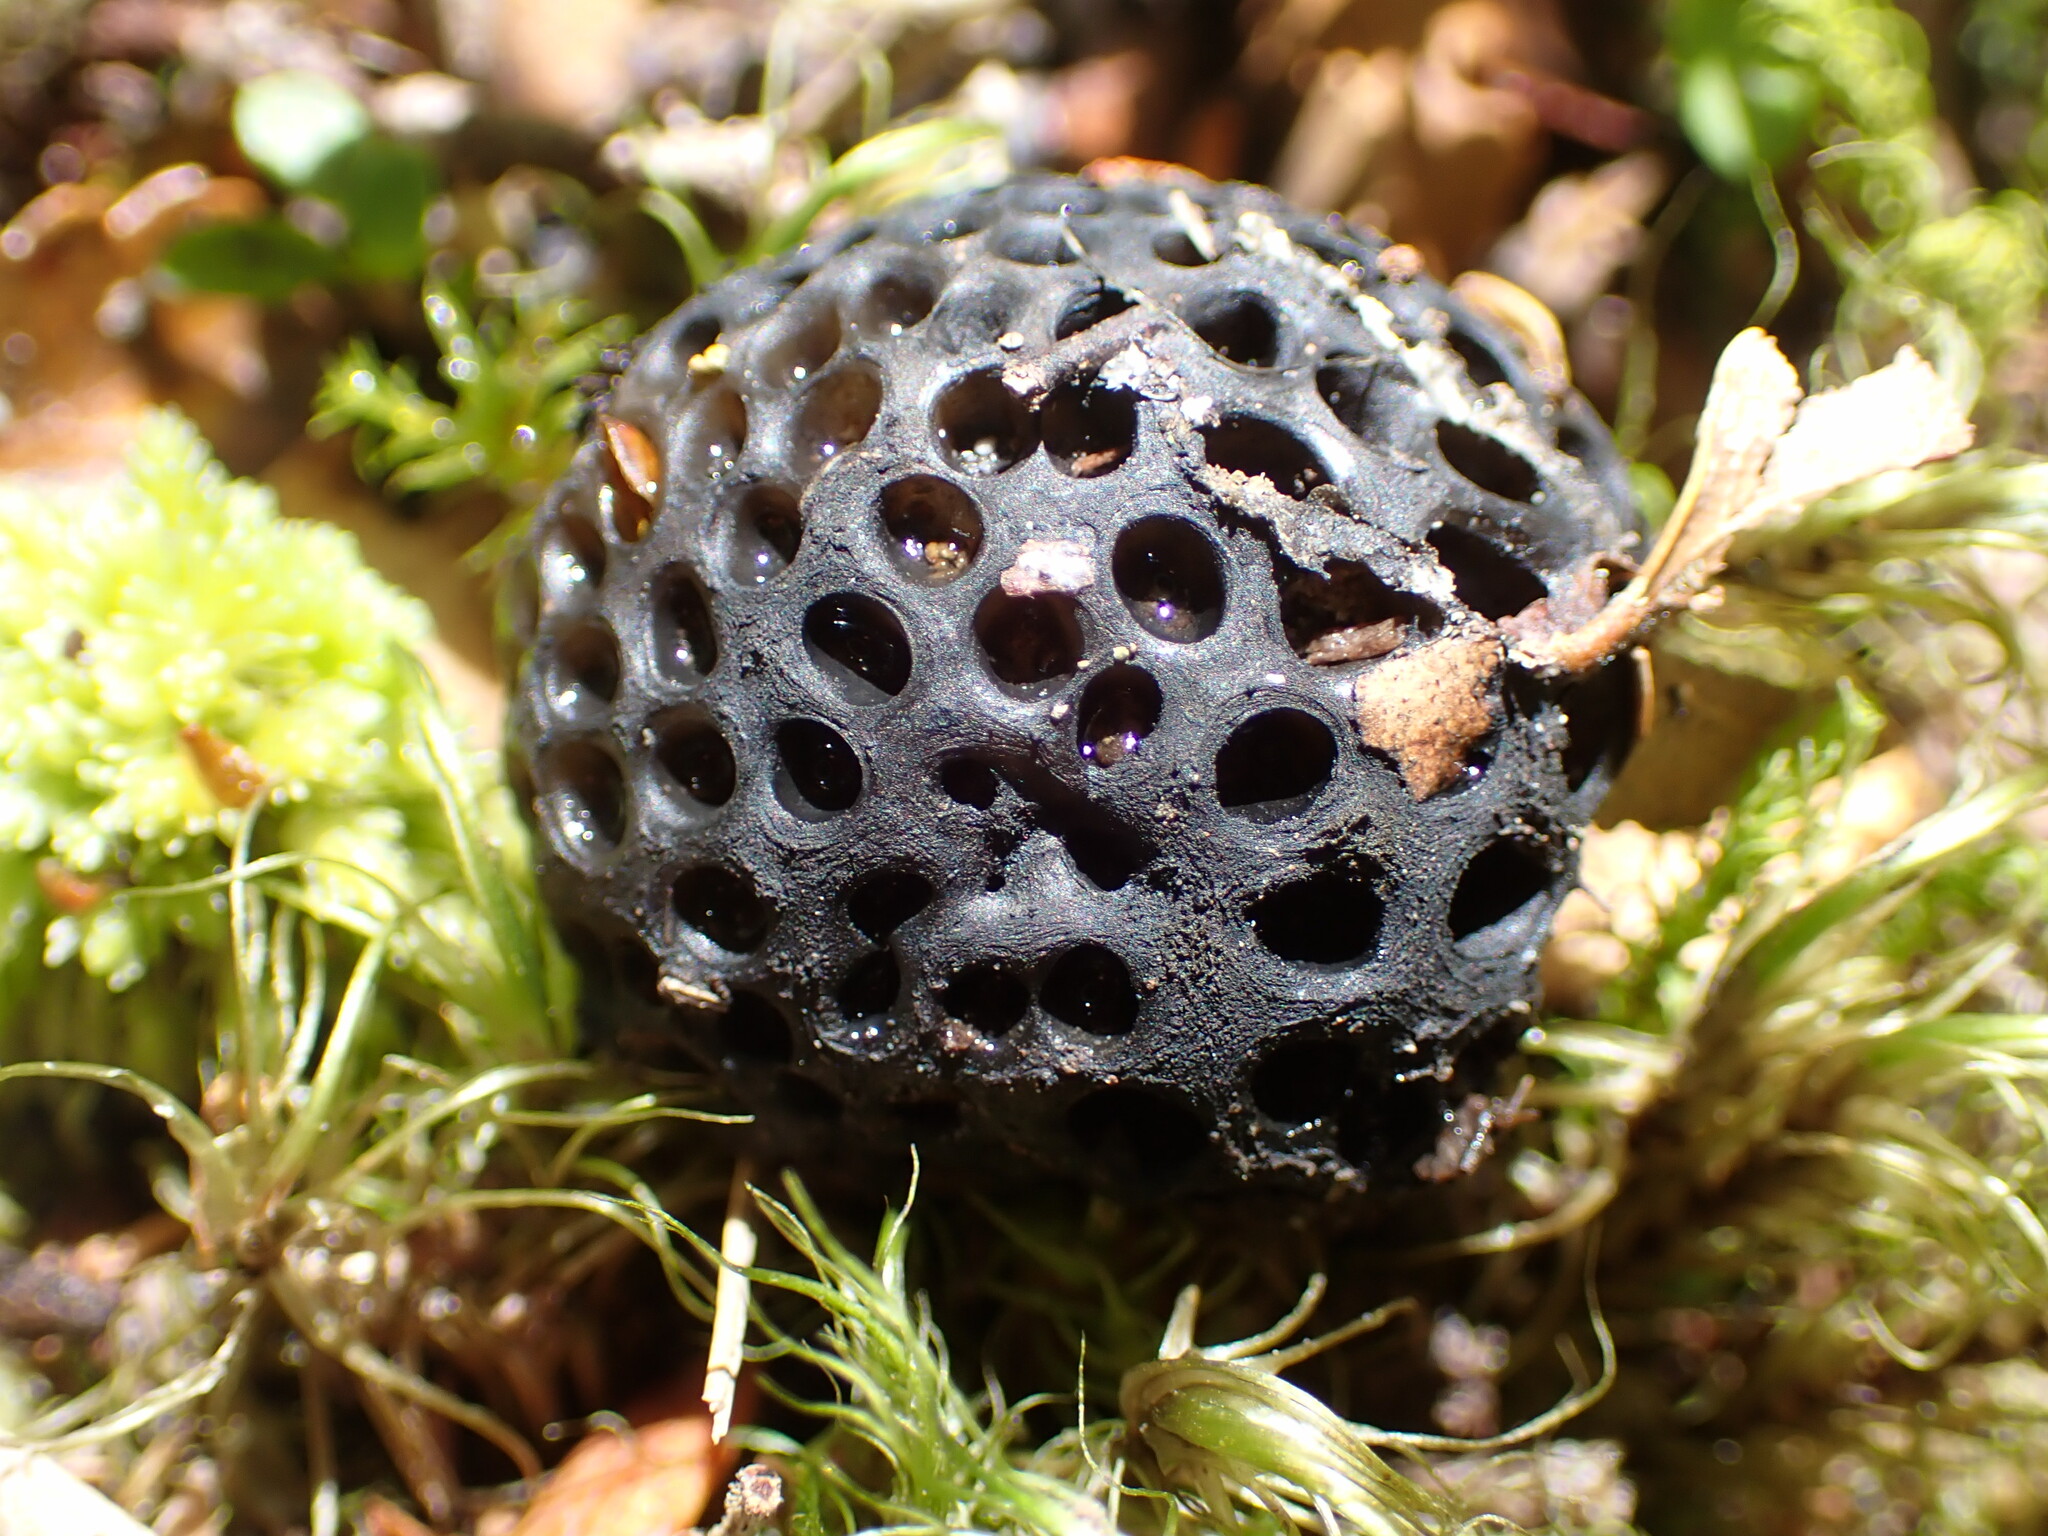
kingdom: Fungi
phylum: Ascomycota
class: Leotiomycetes
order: Cyttariales
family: Cyttariaceae
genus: Cyttaria
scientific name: Cyttaria nigra
